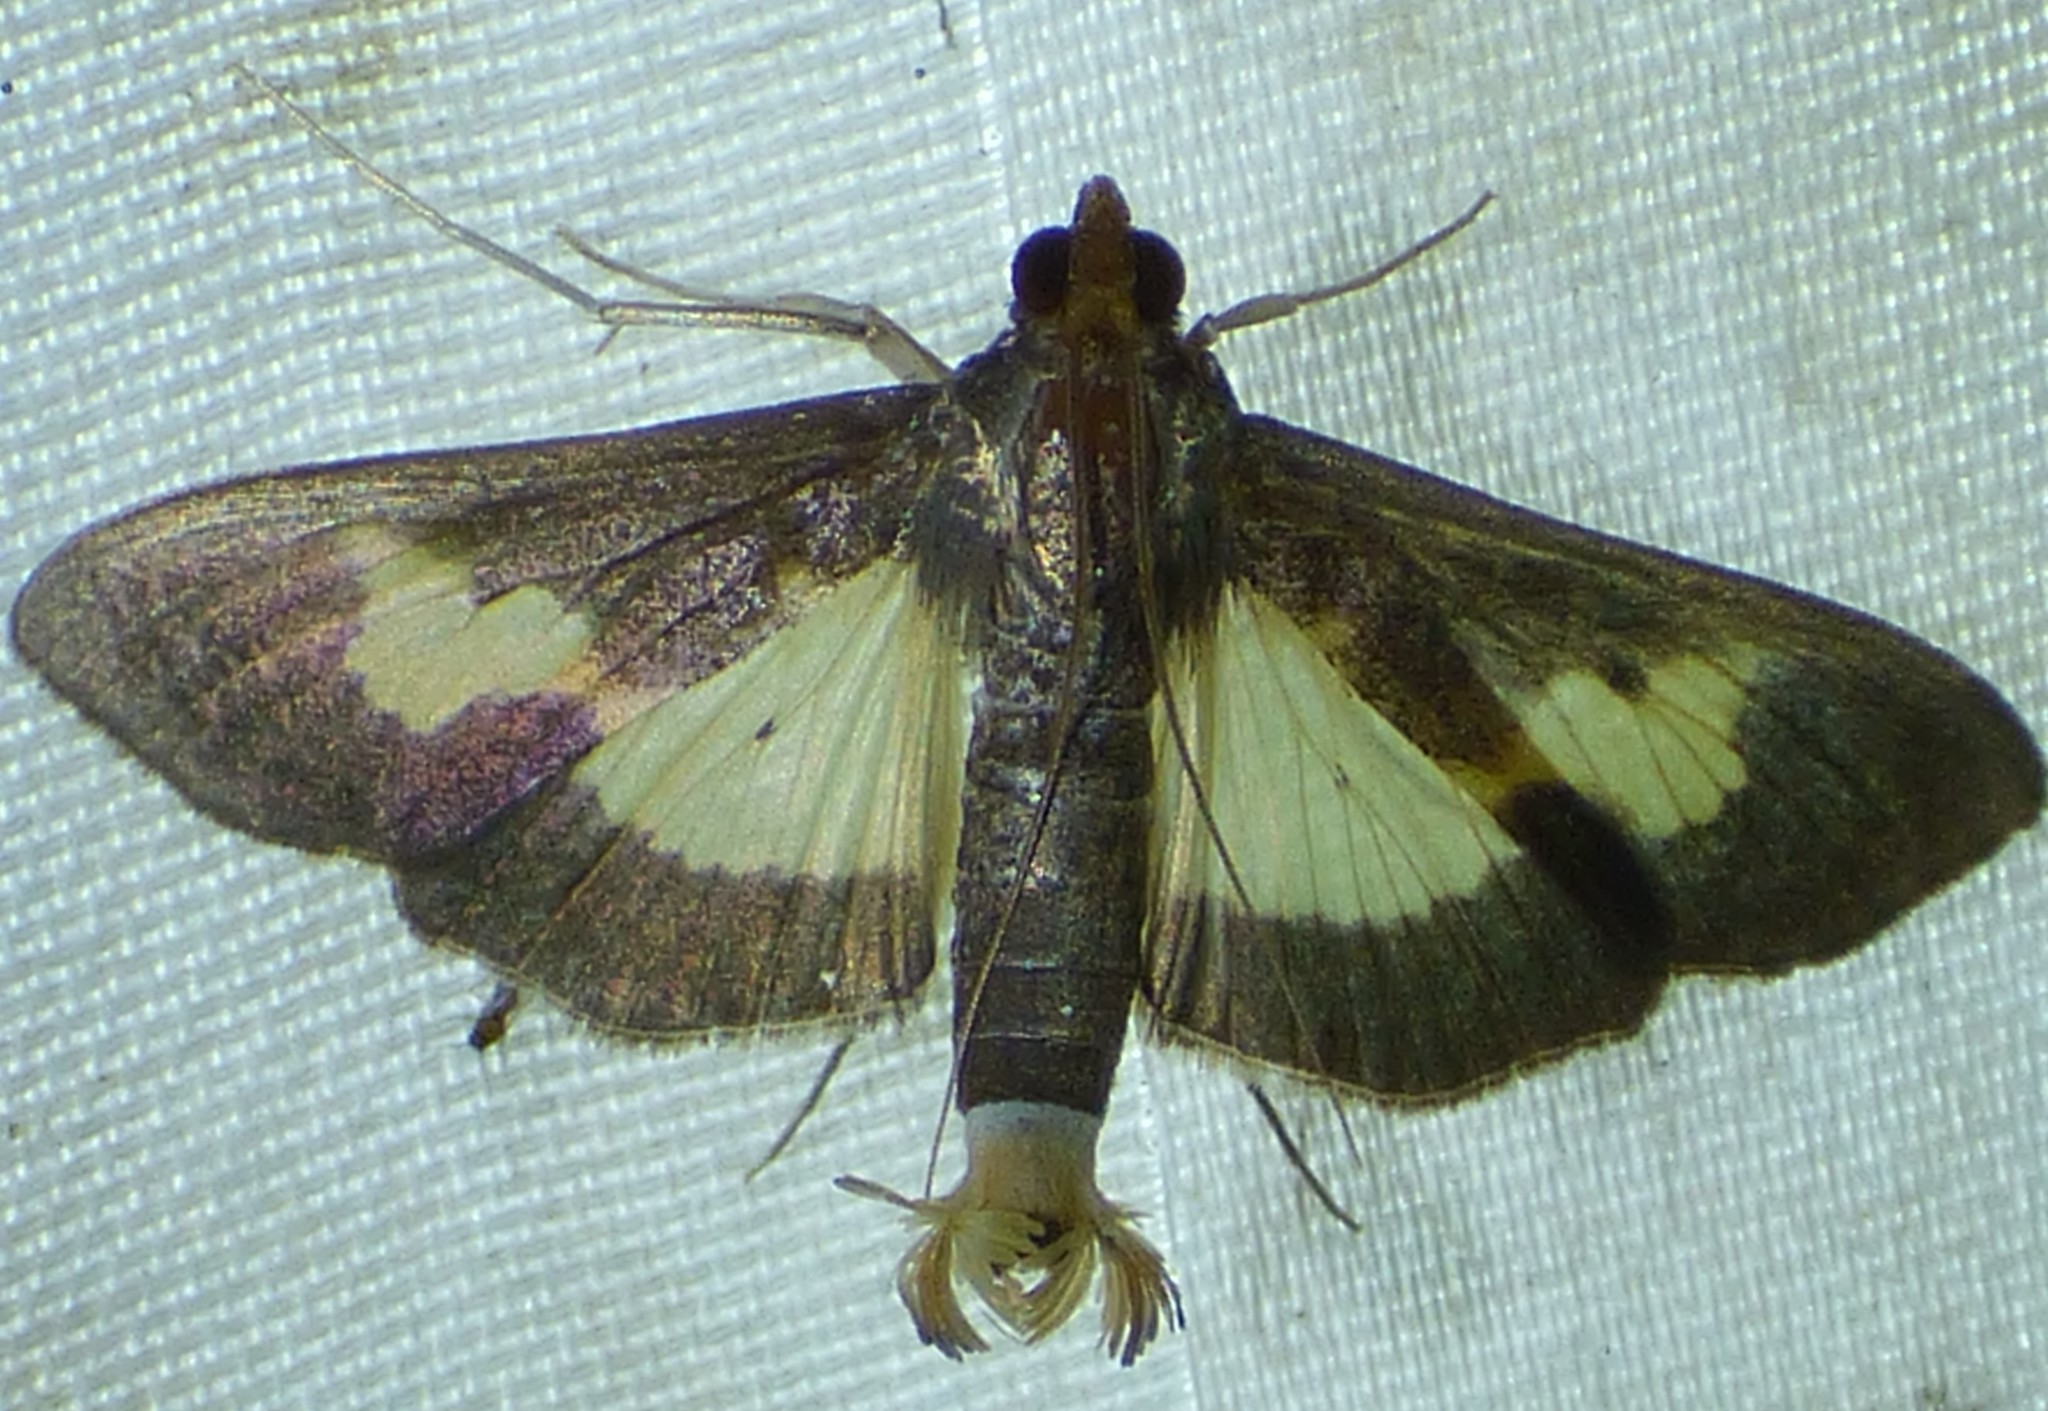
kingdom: Animalia
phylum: Arthropoda
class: Insecta
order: Lepidoptera
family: Crambidae
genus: Cryptographis
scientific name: Cryptographis nitidalis
